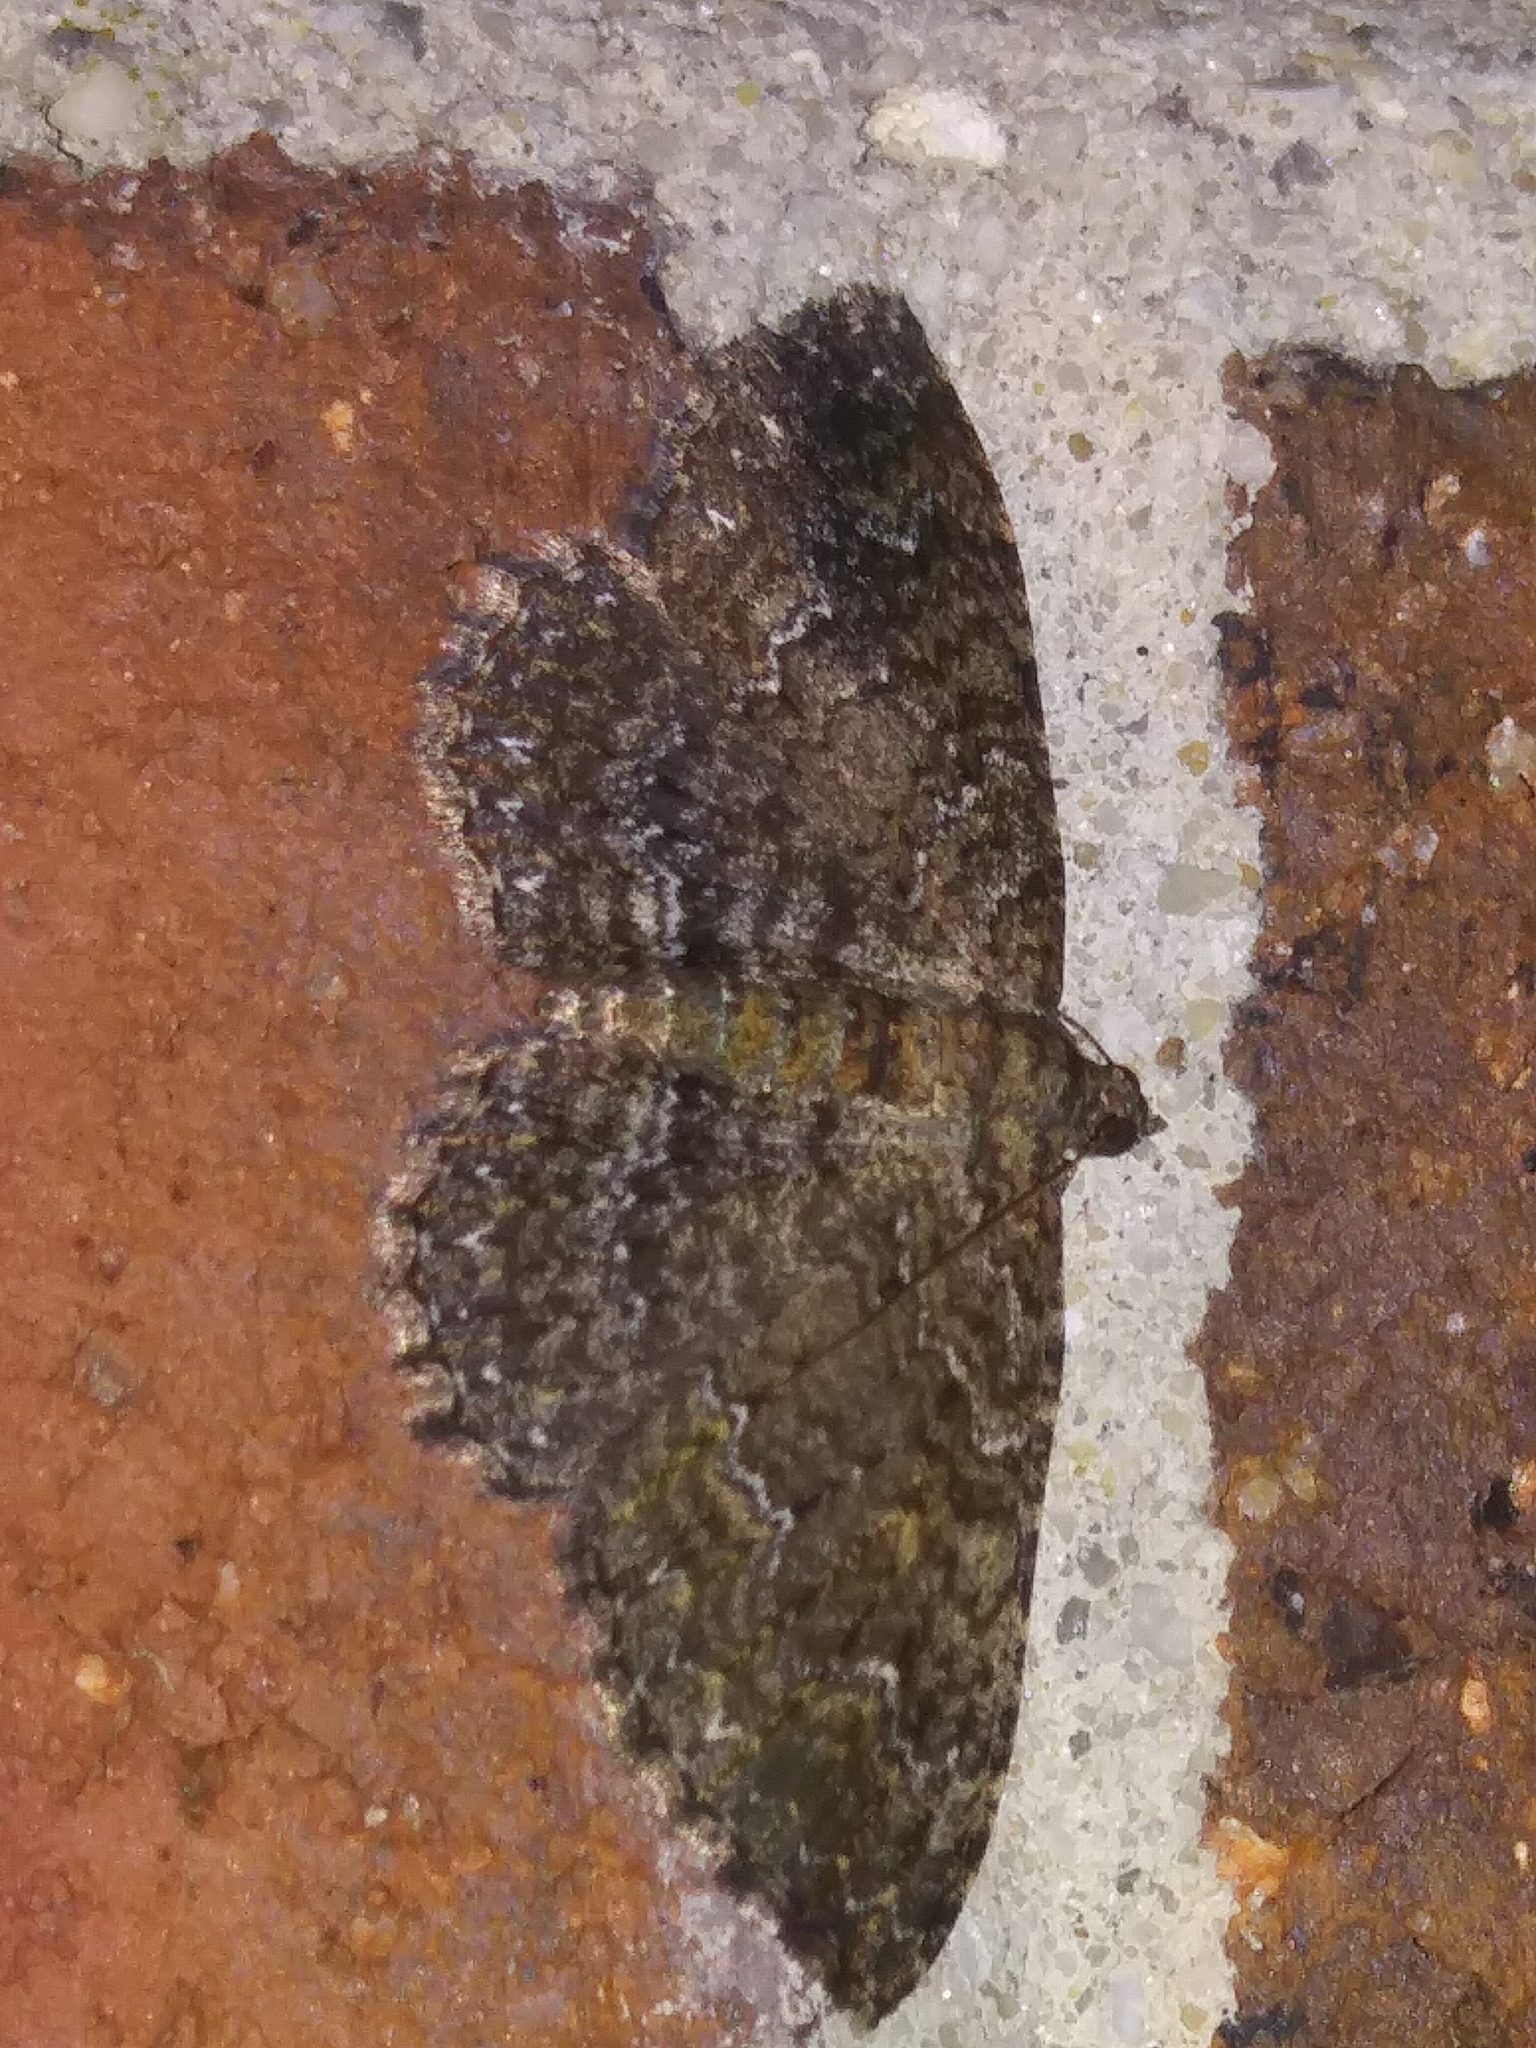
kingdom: Animalia
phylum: Arthropoda
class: Insecta
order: Lepidoptera
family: Geometridae
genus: Disclisioprocta
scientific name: Disclisioprocta stellata
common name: Somber carpet
